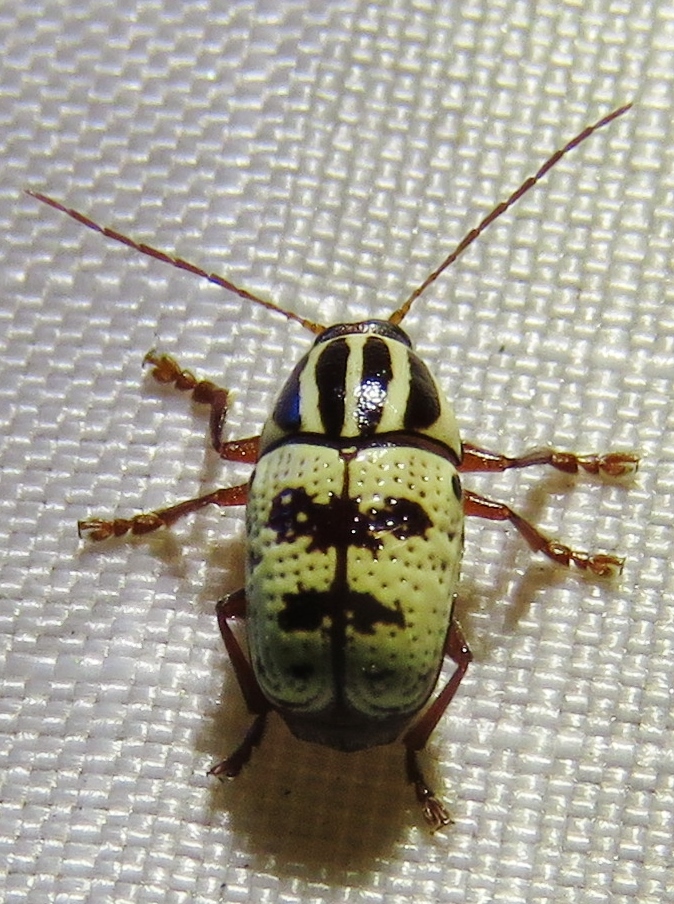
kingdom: Animalia
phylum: Arthropoda
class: Insecta
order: Coleoptera
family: Chrysomelidae
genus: Cryptocephalus
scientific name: Cryptocephalus leucomelas
